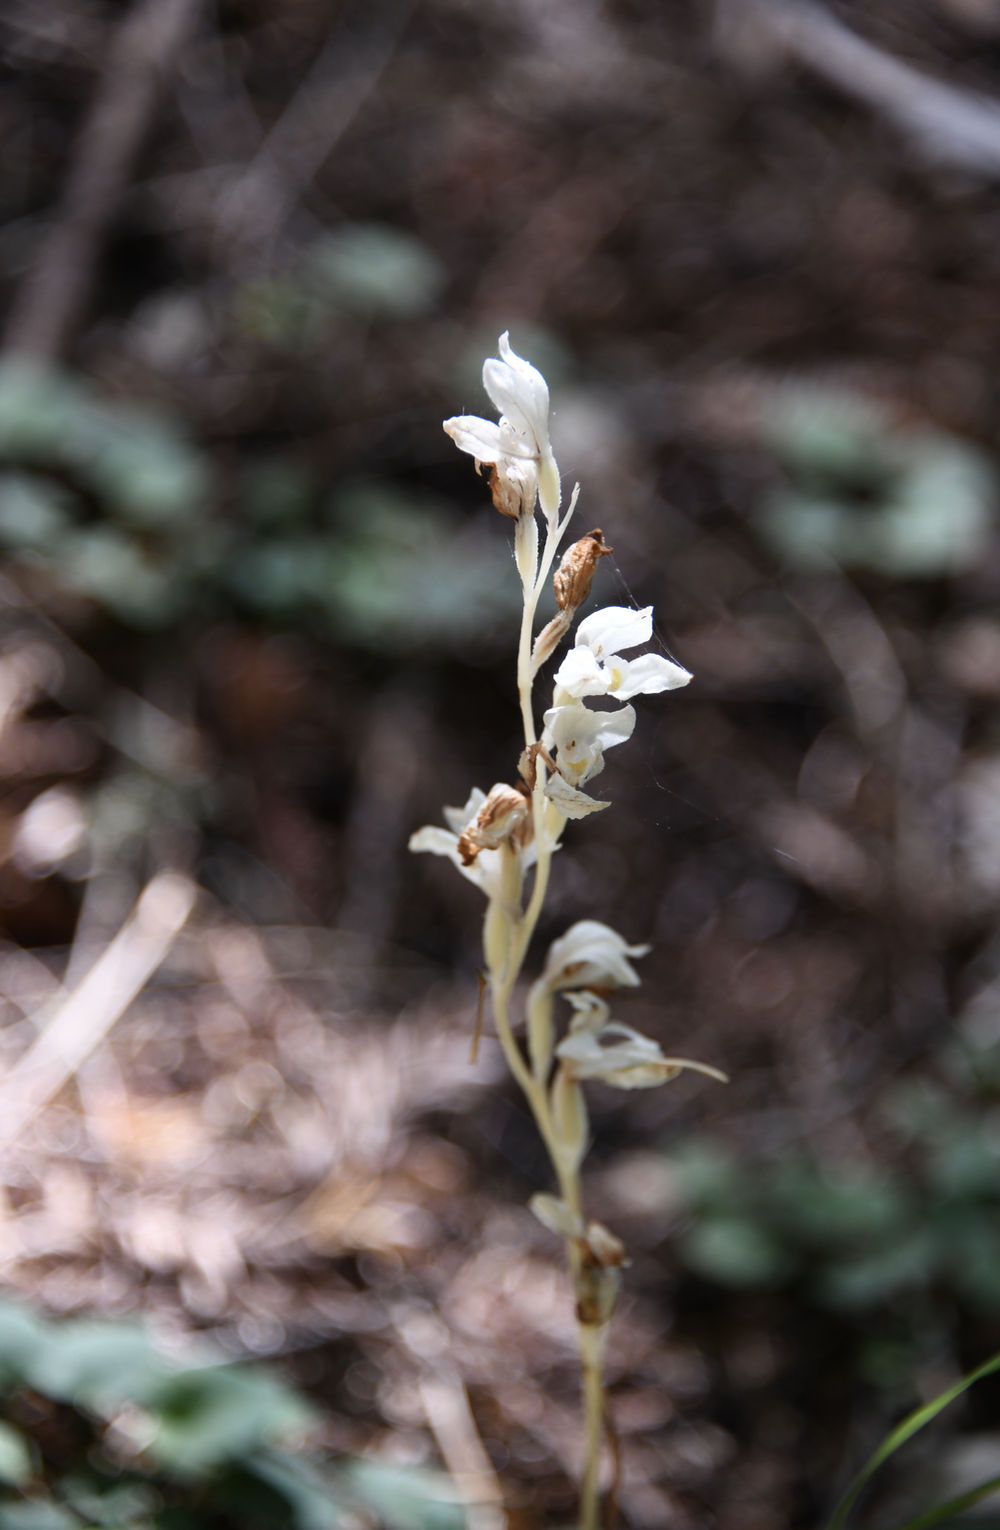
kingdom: Plantae
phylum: Tracheophyta
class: Liliopsida
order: Asparagales
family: Orchidaceae
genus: Cephalanthera
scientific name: Cephalanthera austiniae
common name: Phantom orchid
